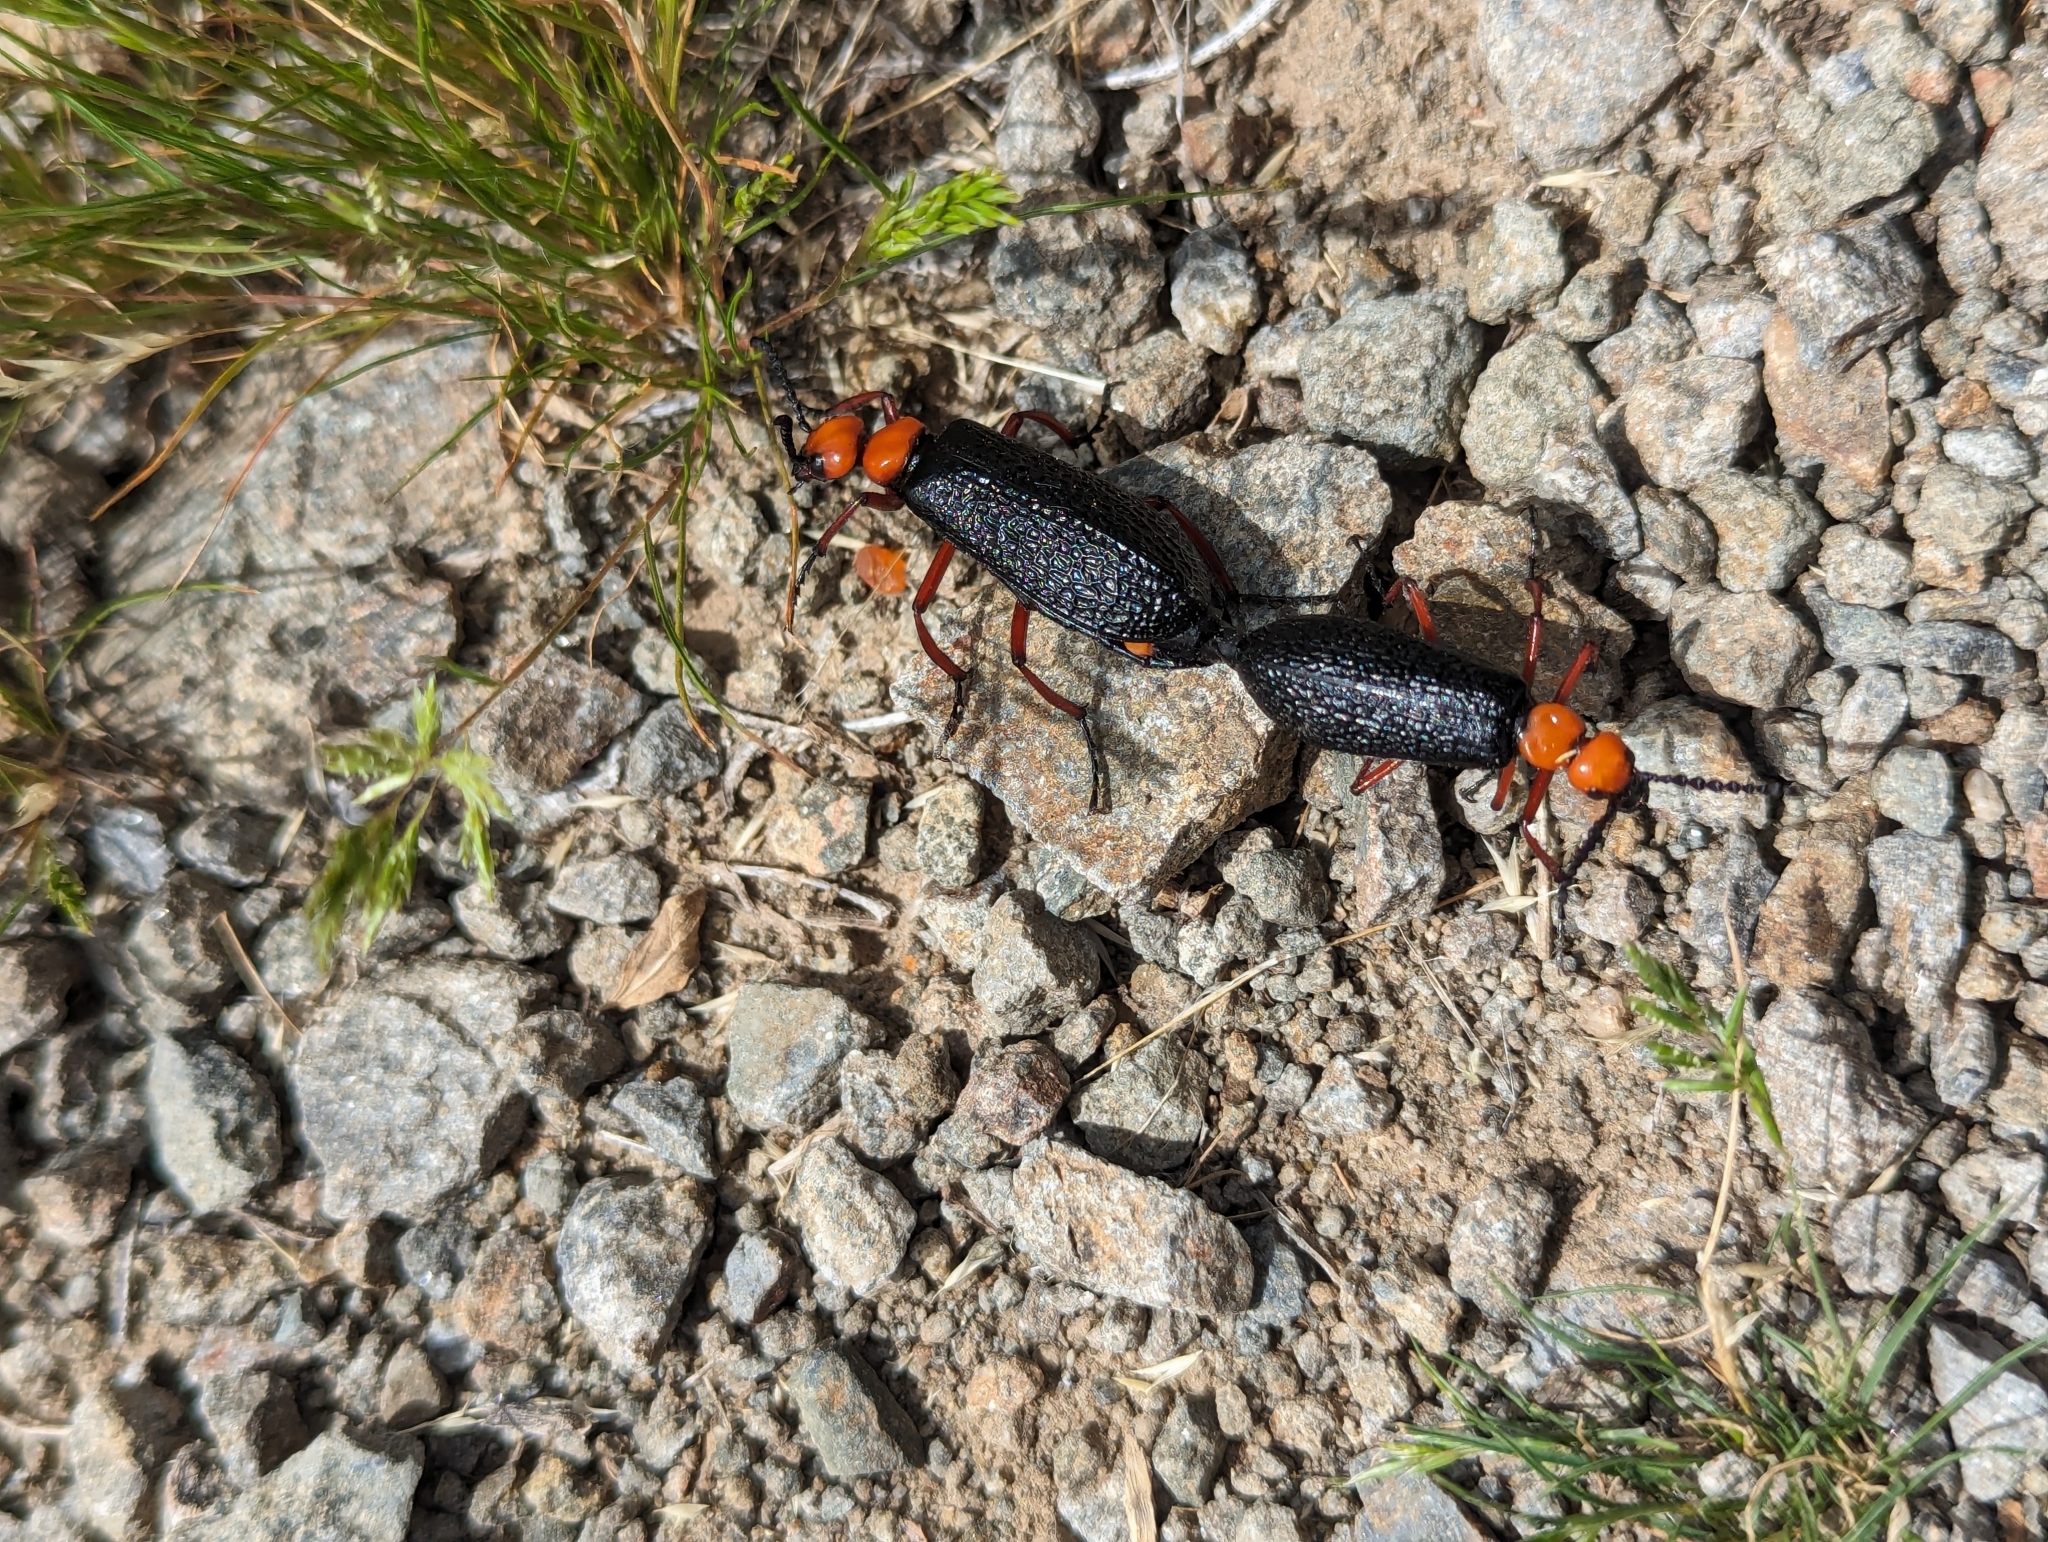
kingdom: Animalia
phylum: Arthropoda
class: Insecta
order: Coleoptera
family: Meloidae
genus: Lytta
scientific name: Lytta magister
